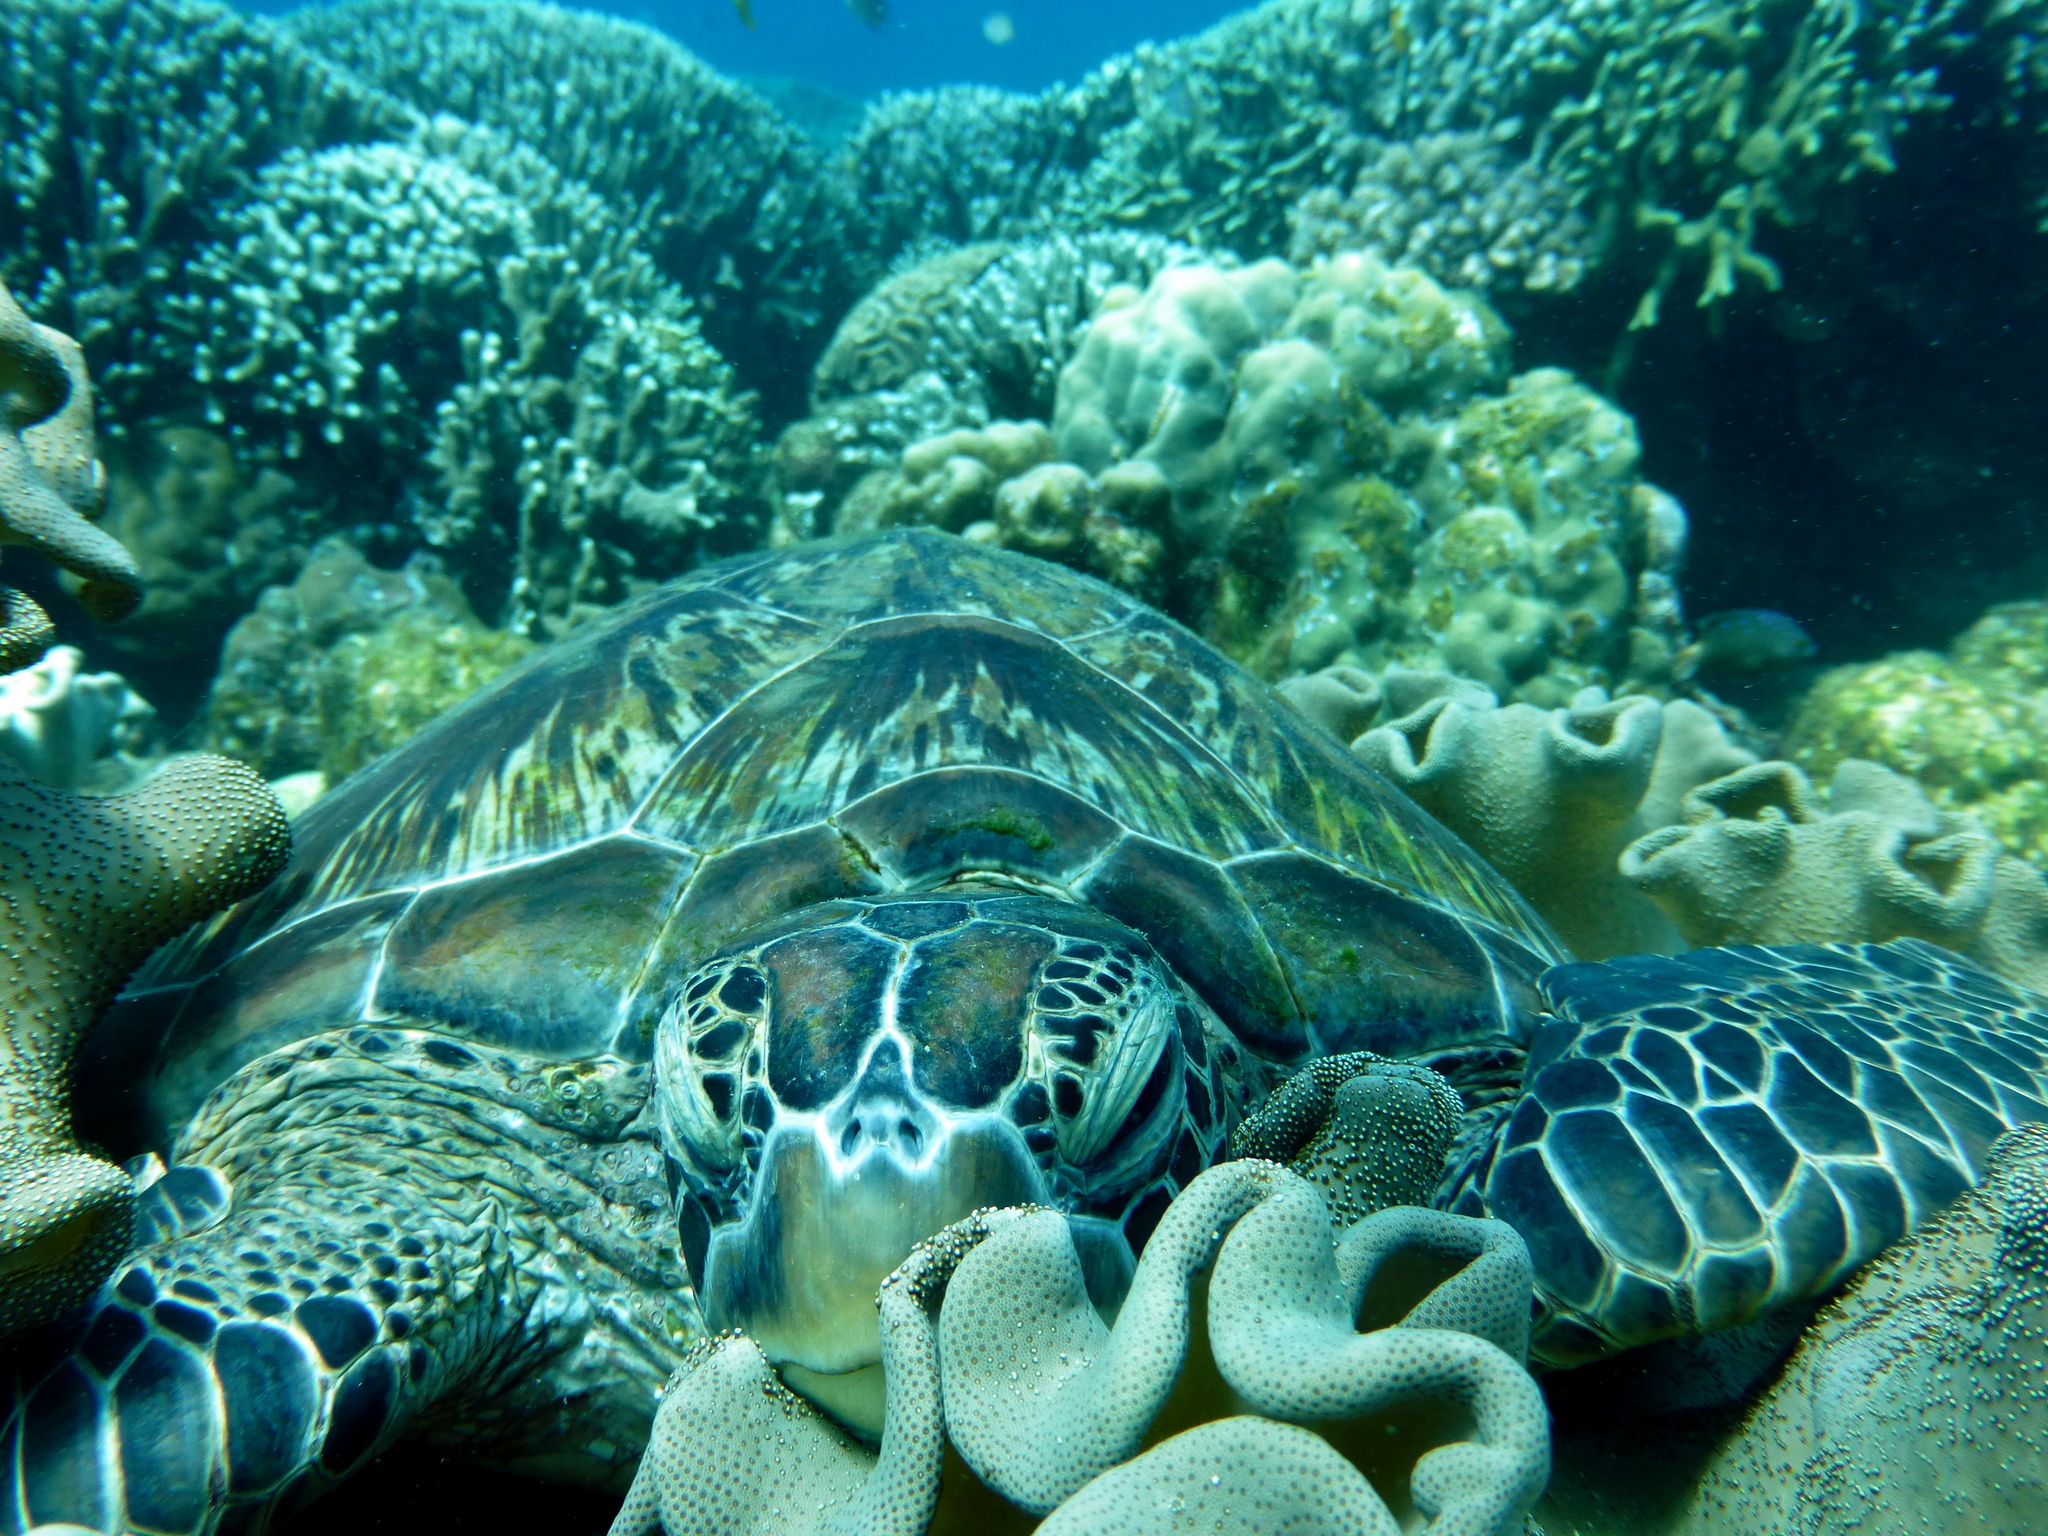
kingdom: Animalia
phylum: Chordata
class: Testudines
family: Cheloniidae
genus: Chelonia
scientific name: Chelonia mydas
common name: Green turtle
